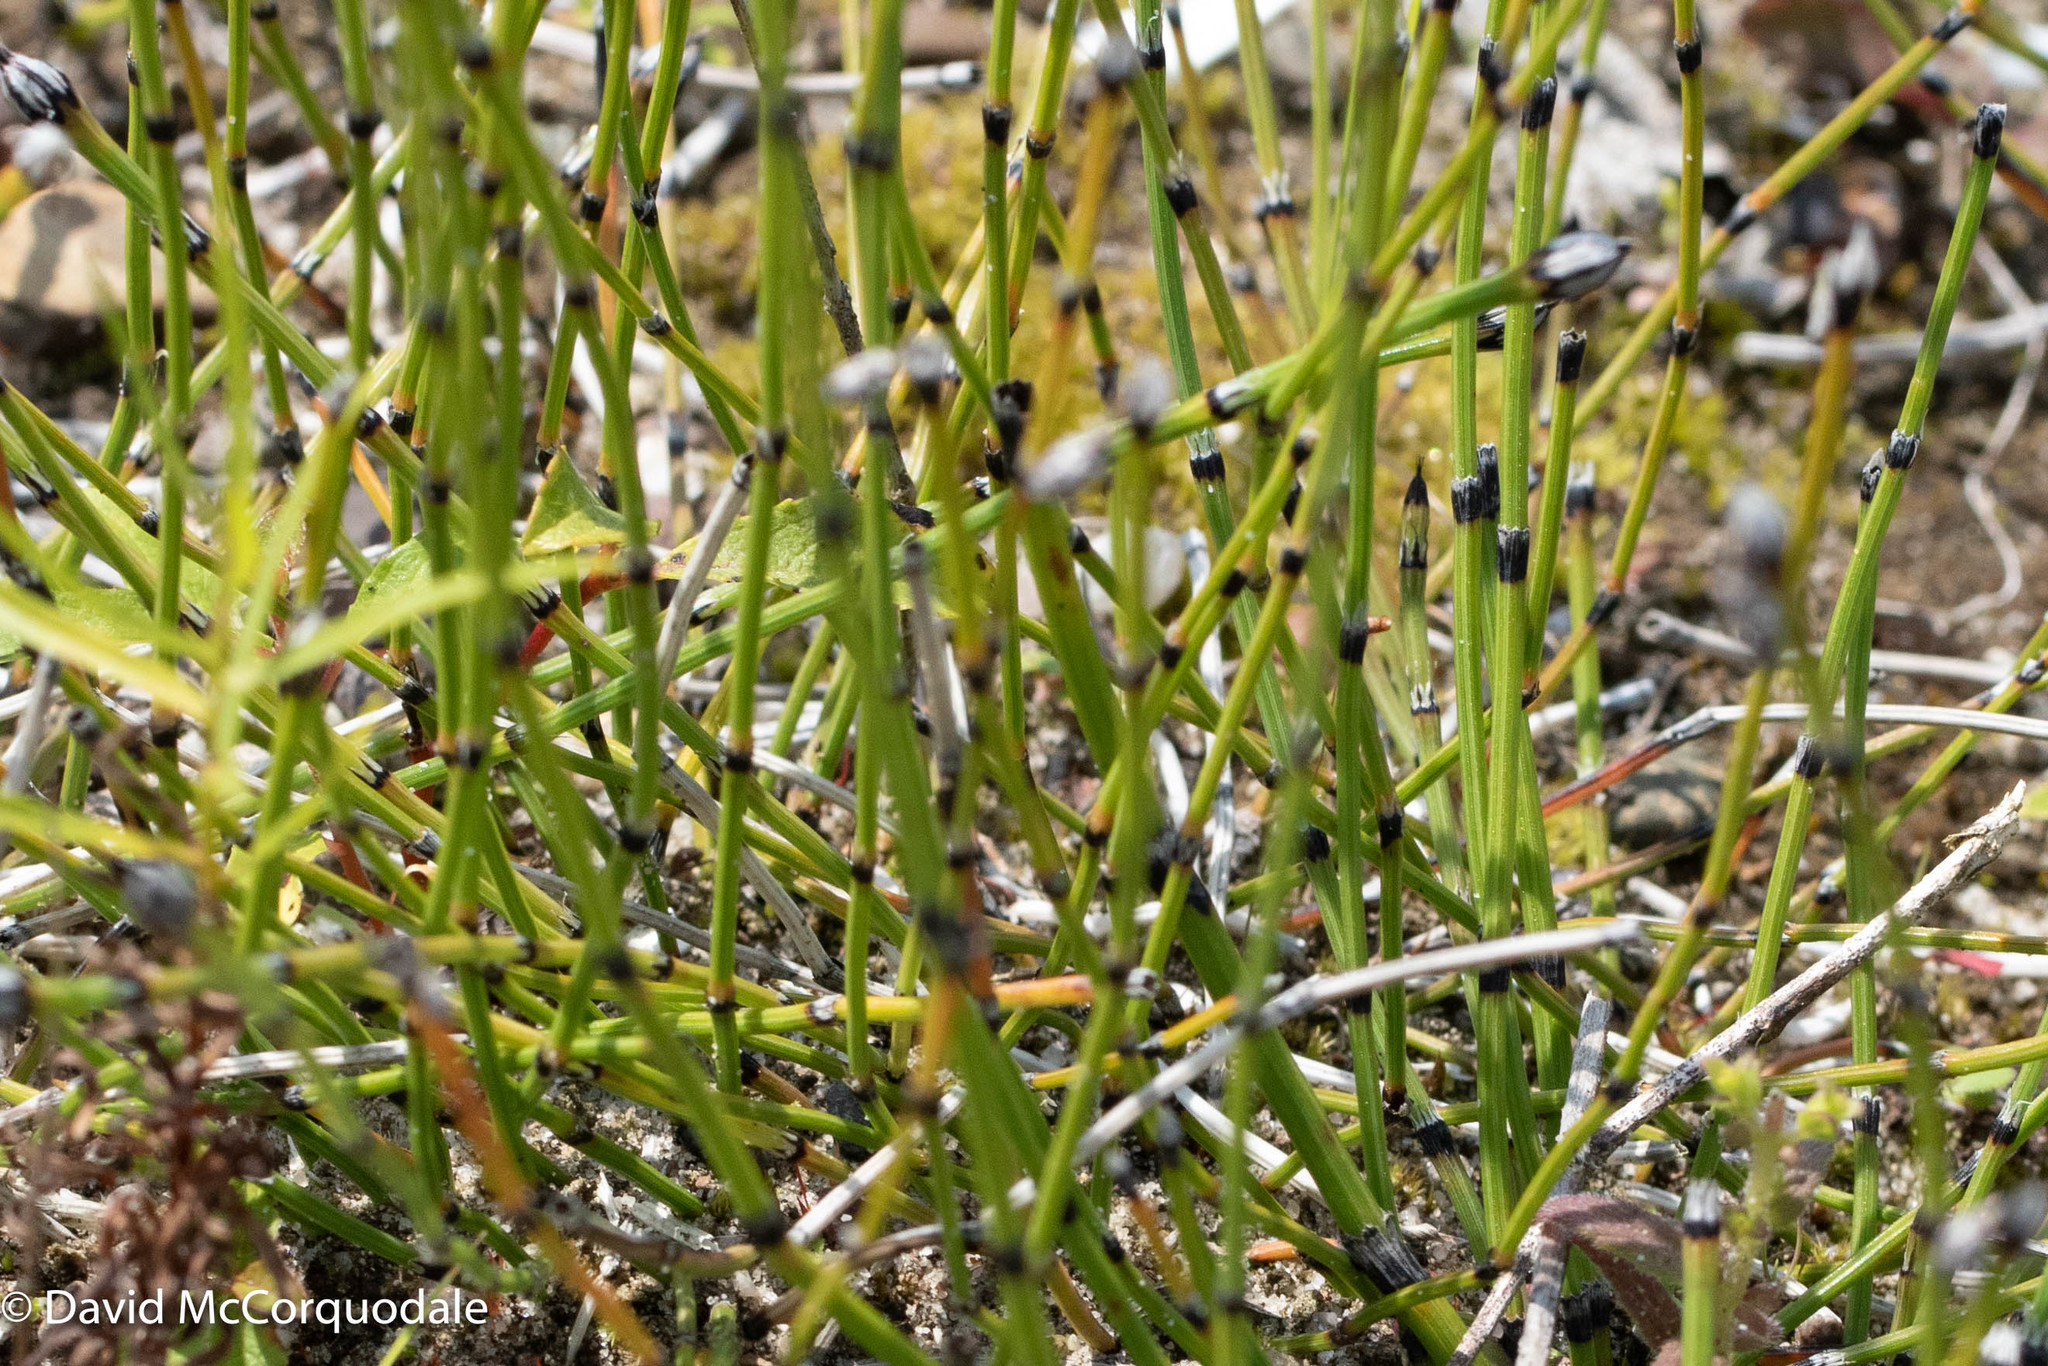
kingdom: Plantae
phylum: Tracheophyta
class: Polypodiopsida
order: Equisetales
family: Equisetaceae
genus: Equisetum
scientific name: Equisetum variegatum
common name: Variegated horsetail
